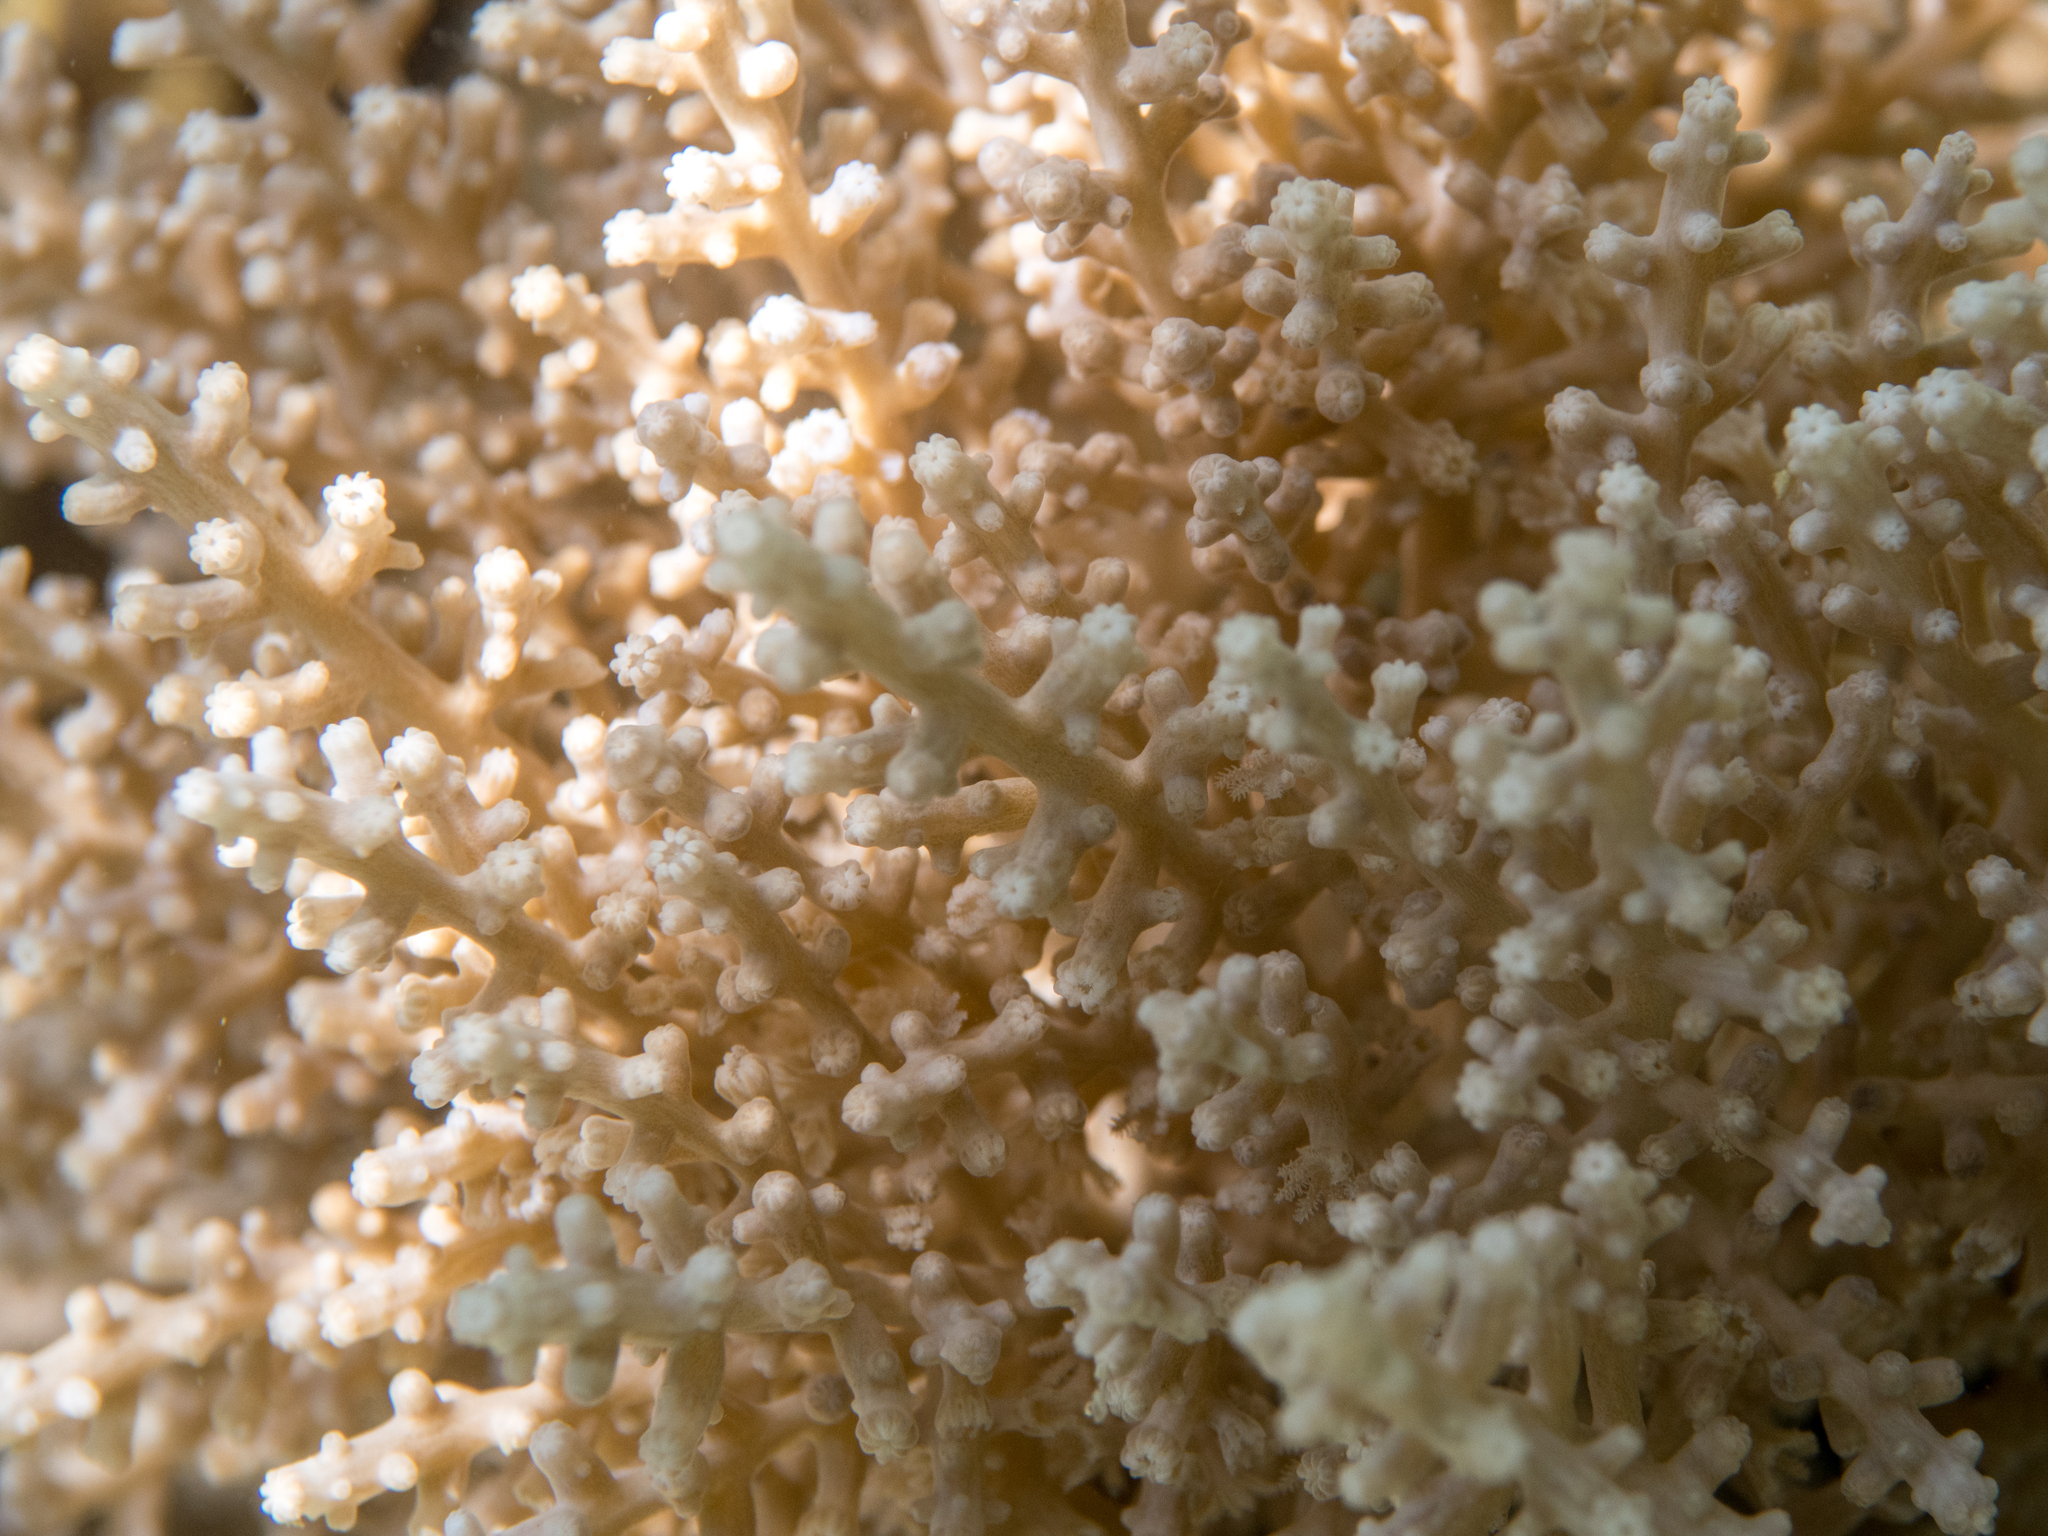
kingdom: Animalia
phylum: Cnidaria
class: Anthozoa
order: Malacalcyonacea
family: Coelogorgiidae
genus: Coelogorgia
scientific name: Coelogorgia palmosa
